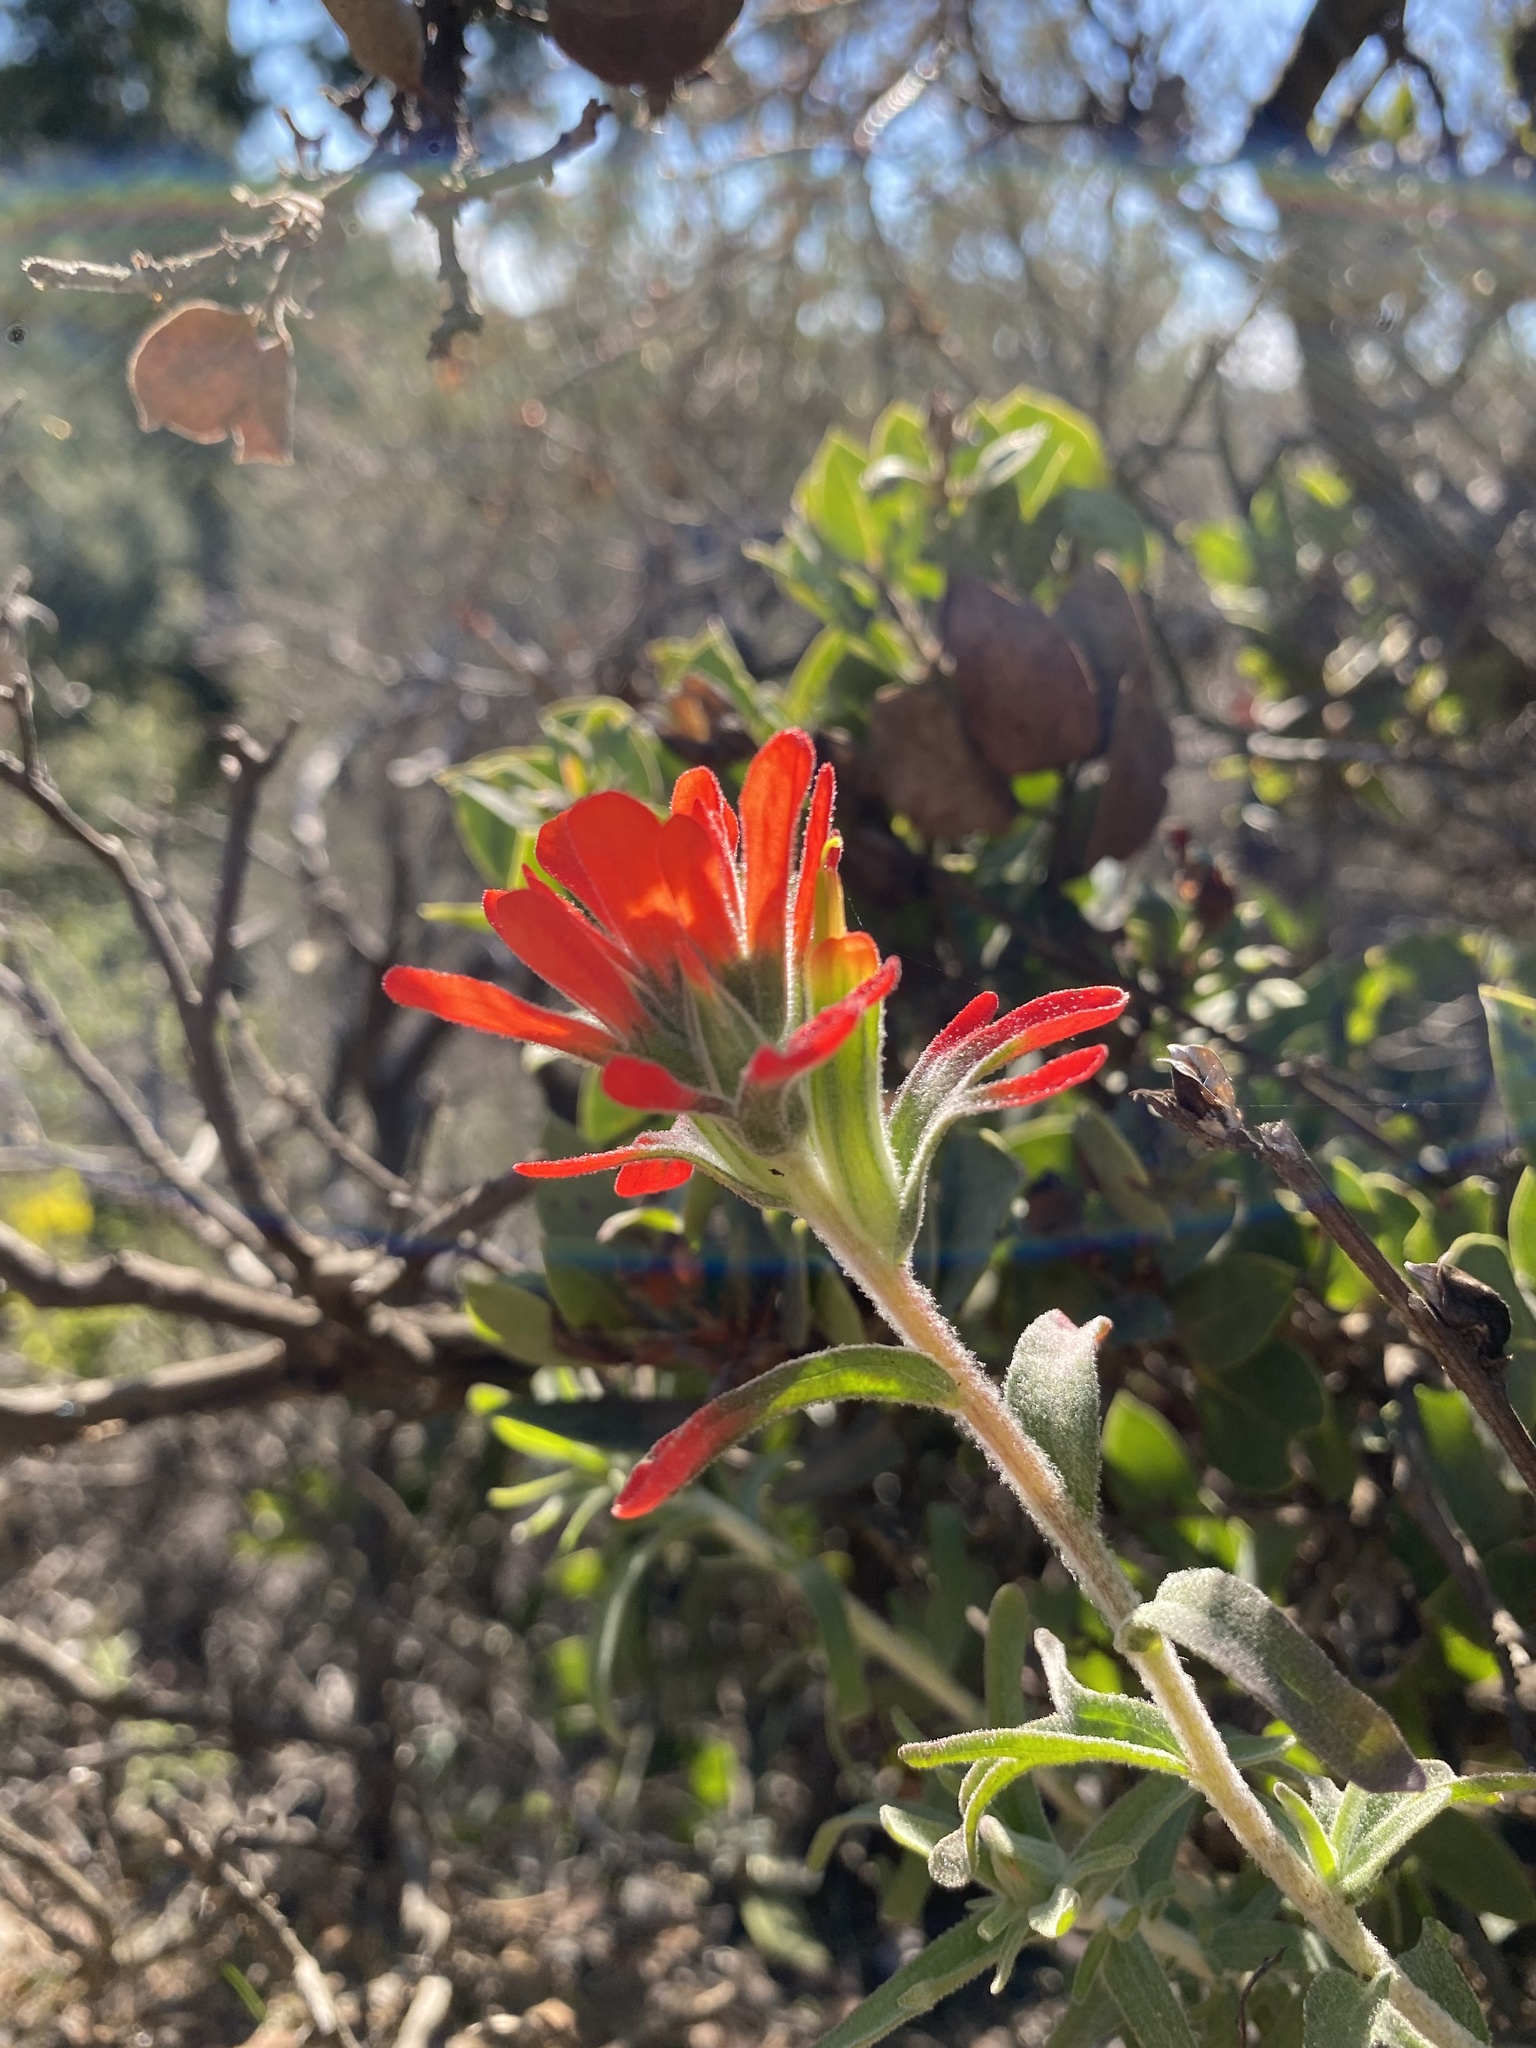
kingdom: Plantae
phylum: Tracheophyta
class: Magnoliopsida
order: Lamiales
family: Orobanchaceae
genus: Castilleja
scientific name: Castilleja foliolosa
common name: Woolly indian paintbrush
